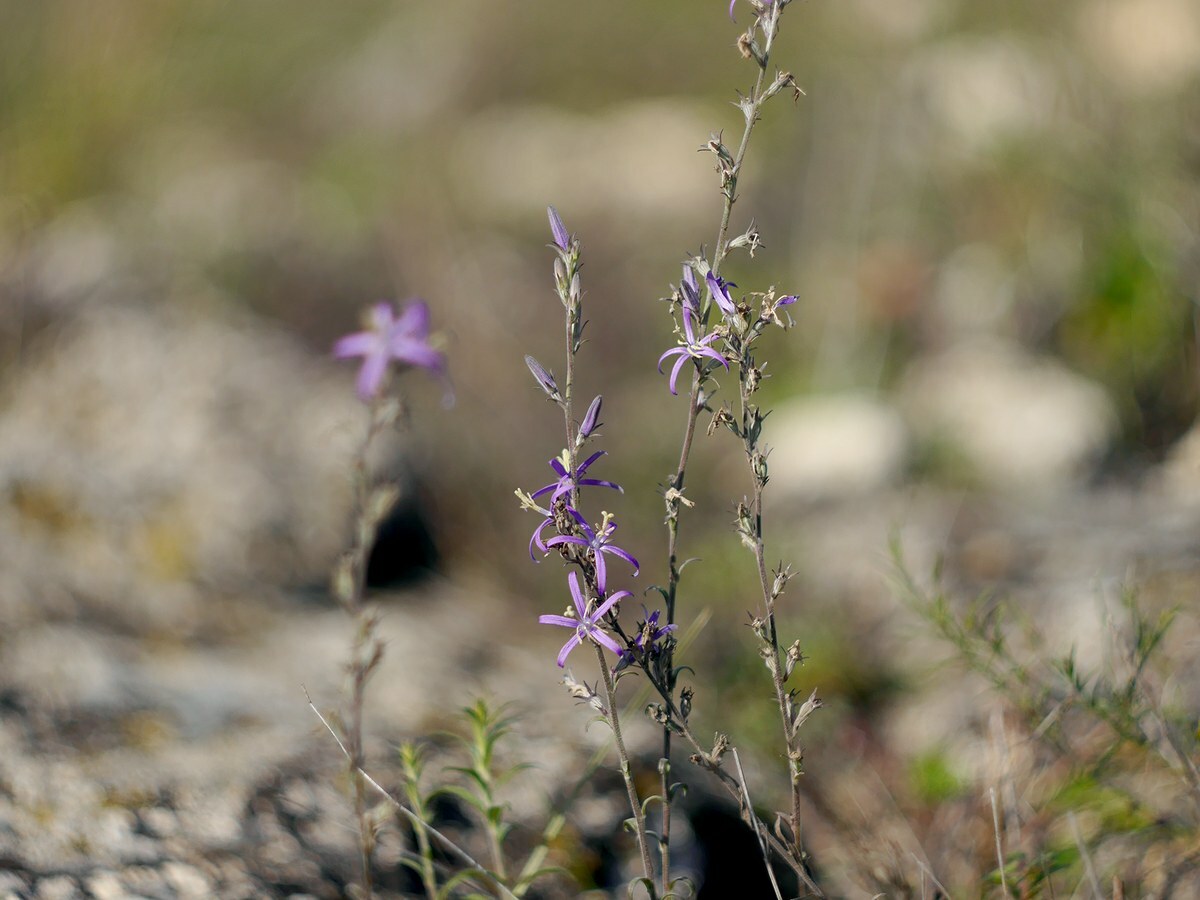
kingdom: Plantae
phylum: Tracheophyta
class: Magnoliopsida
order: Asterales
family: Campanulaceae
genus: Asyneuma
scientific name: Asyneuma canescens
